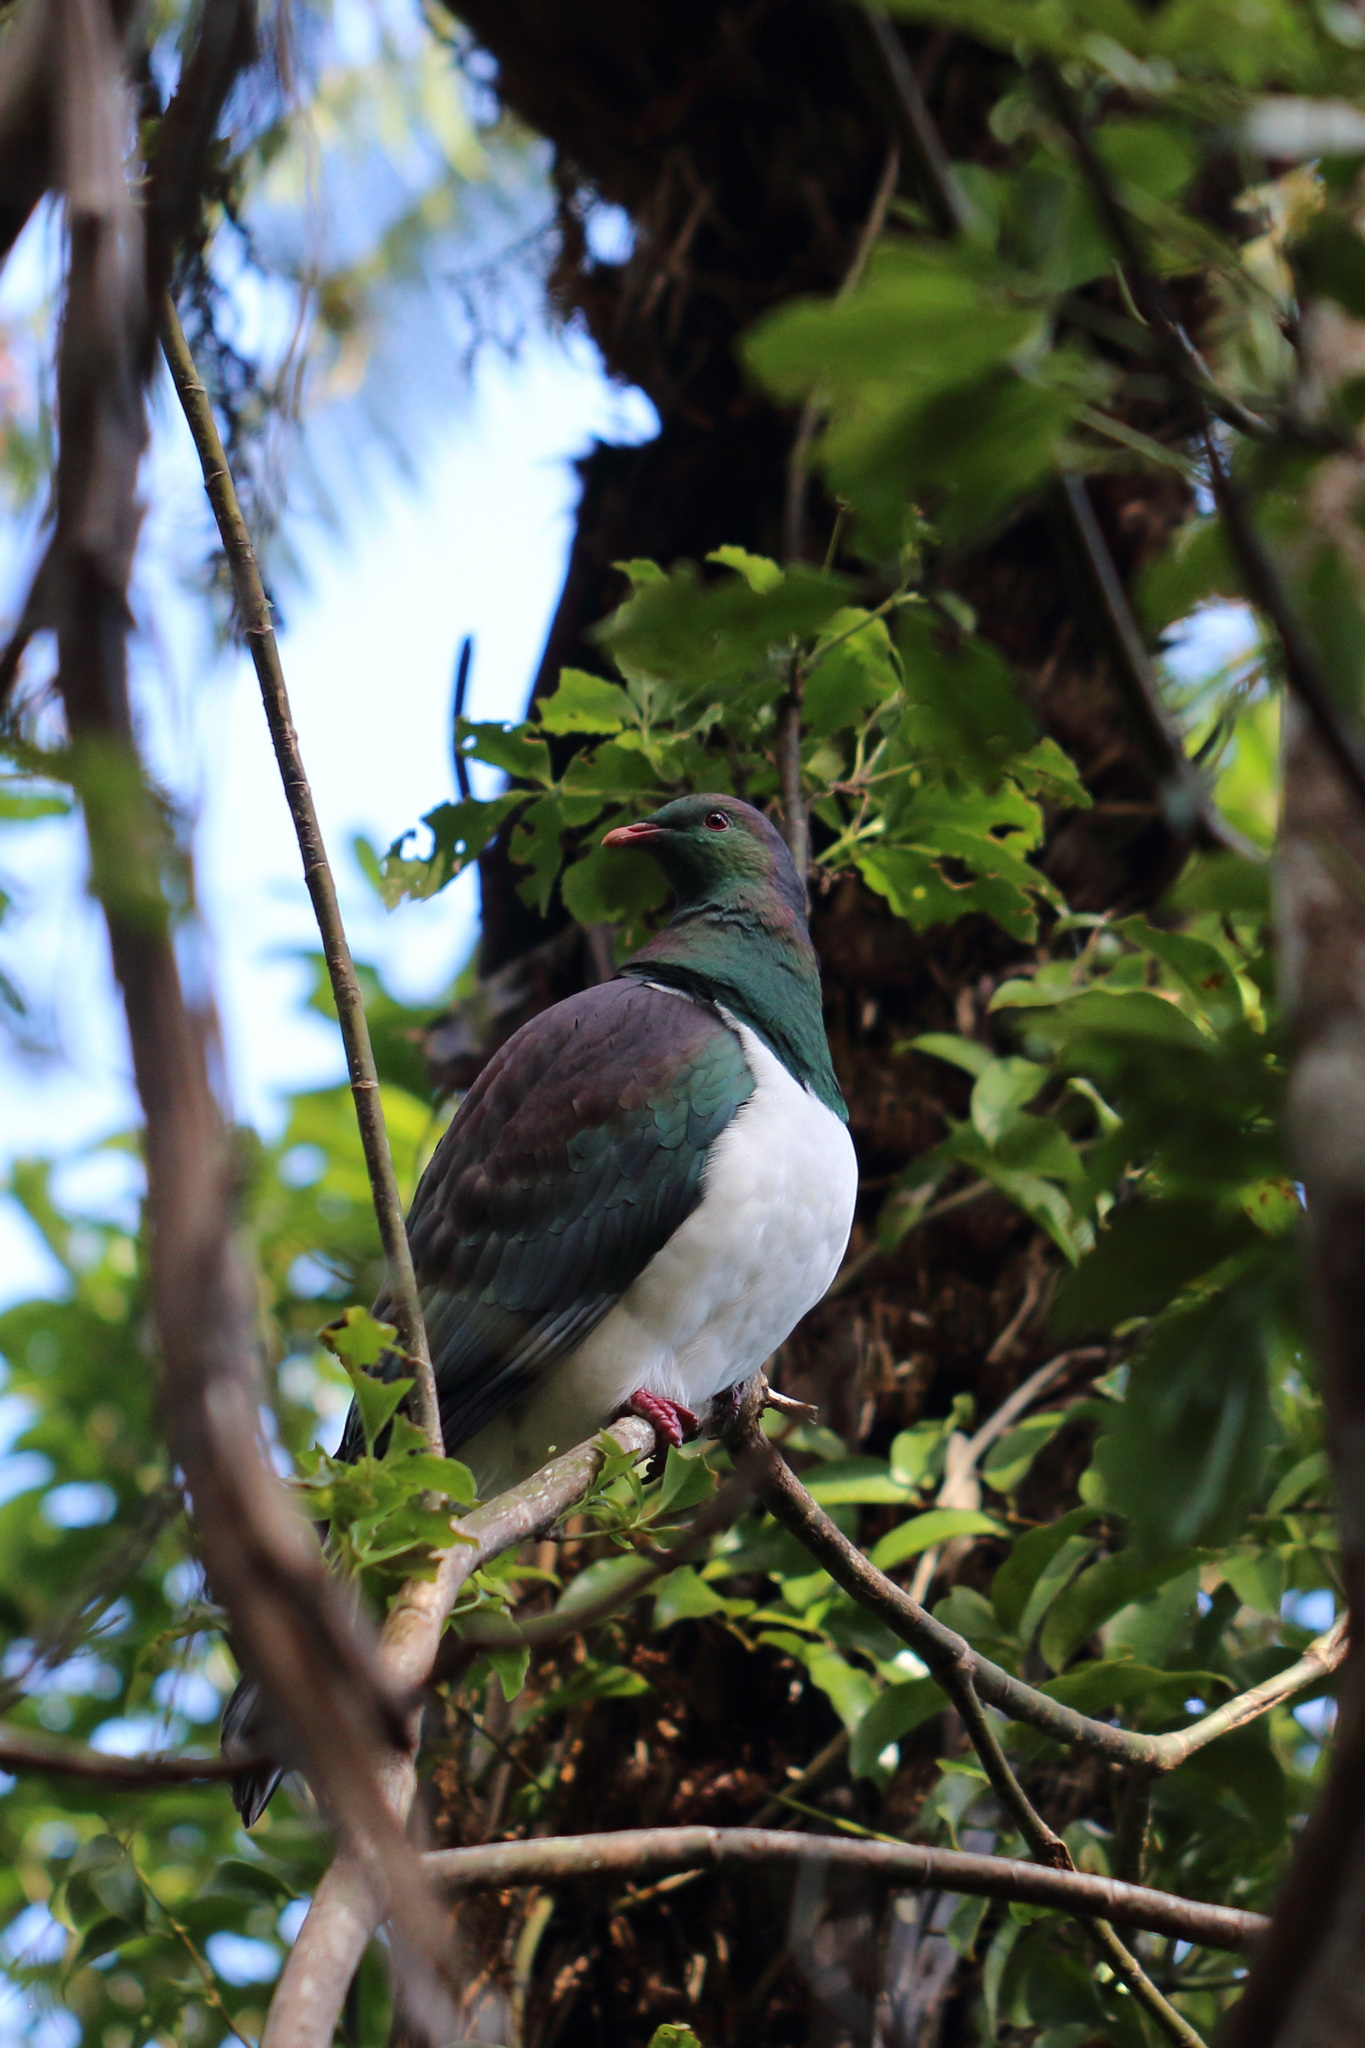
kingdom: Animalia
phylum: Chordata
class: Aves
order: Columbiformes
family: Columbidae
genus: Hemiphaga
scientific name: Hemiphaga novaeseelandiae
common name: New zealand pigeon
